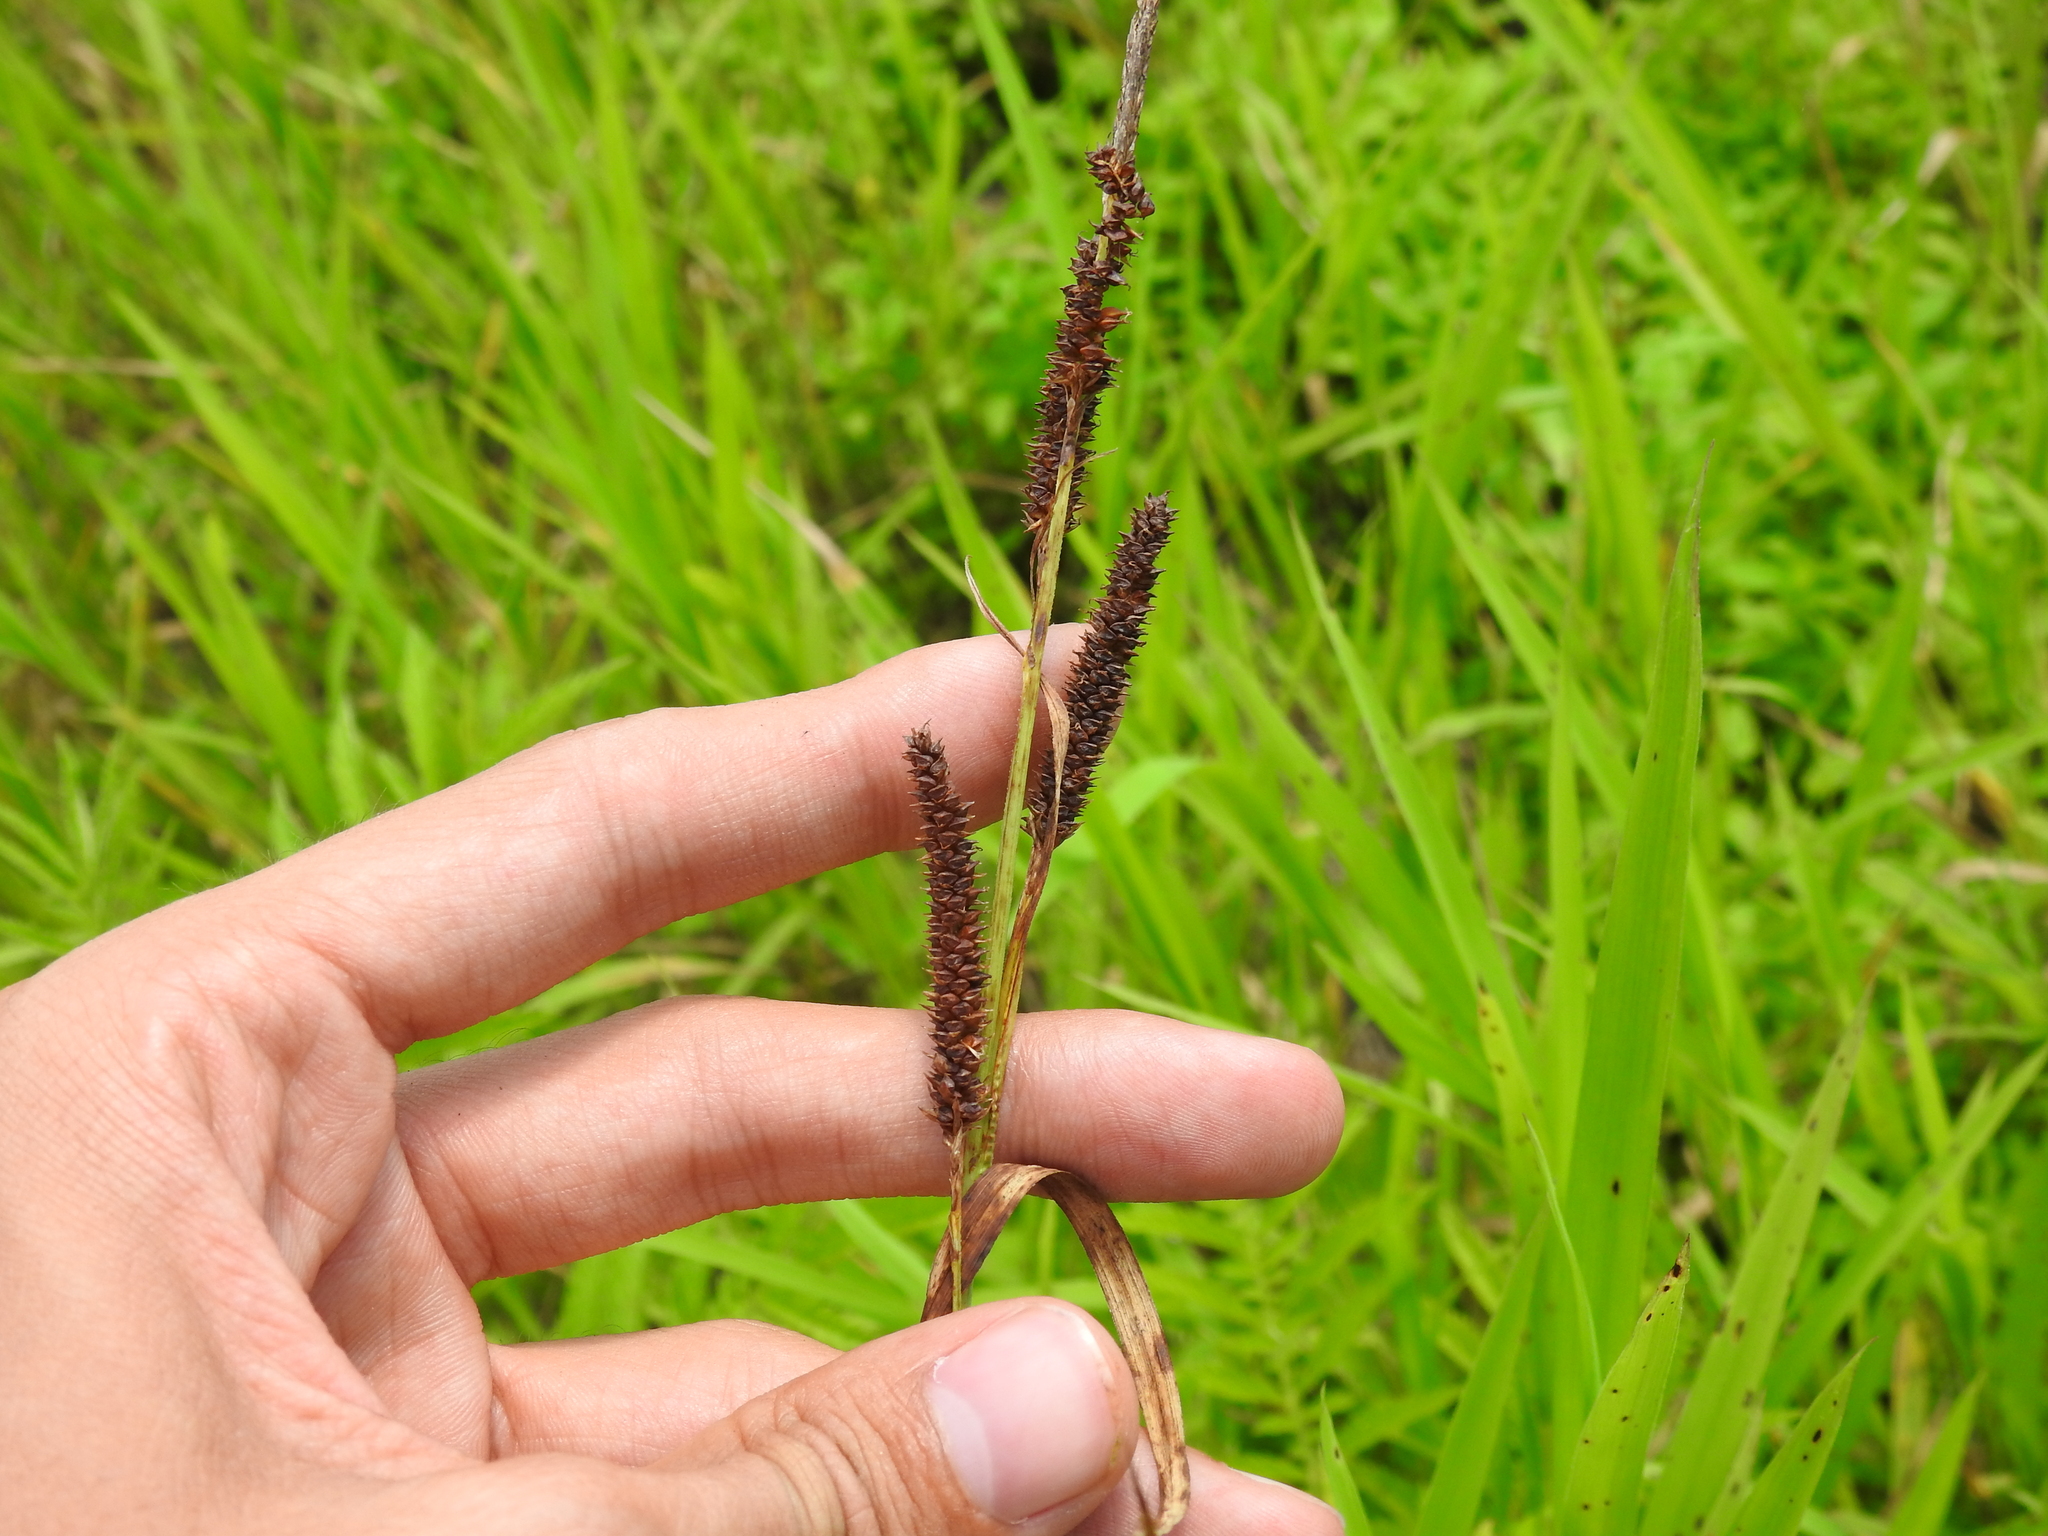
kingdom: Plantae
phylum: Tracheophyta
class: Liliopsida
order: Poales
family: Cyperaceae
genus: Carex
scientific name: Carex shortiana
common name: Short's sedge
